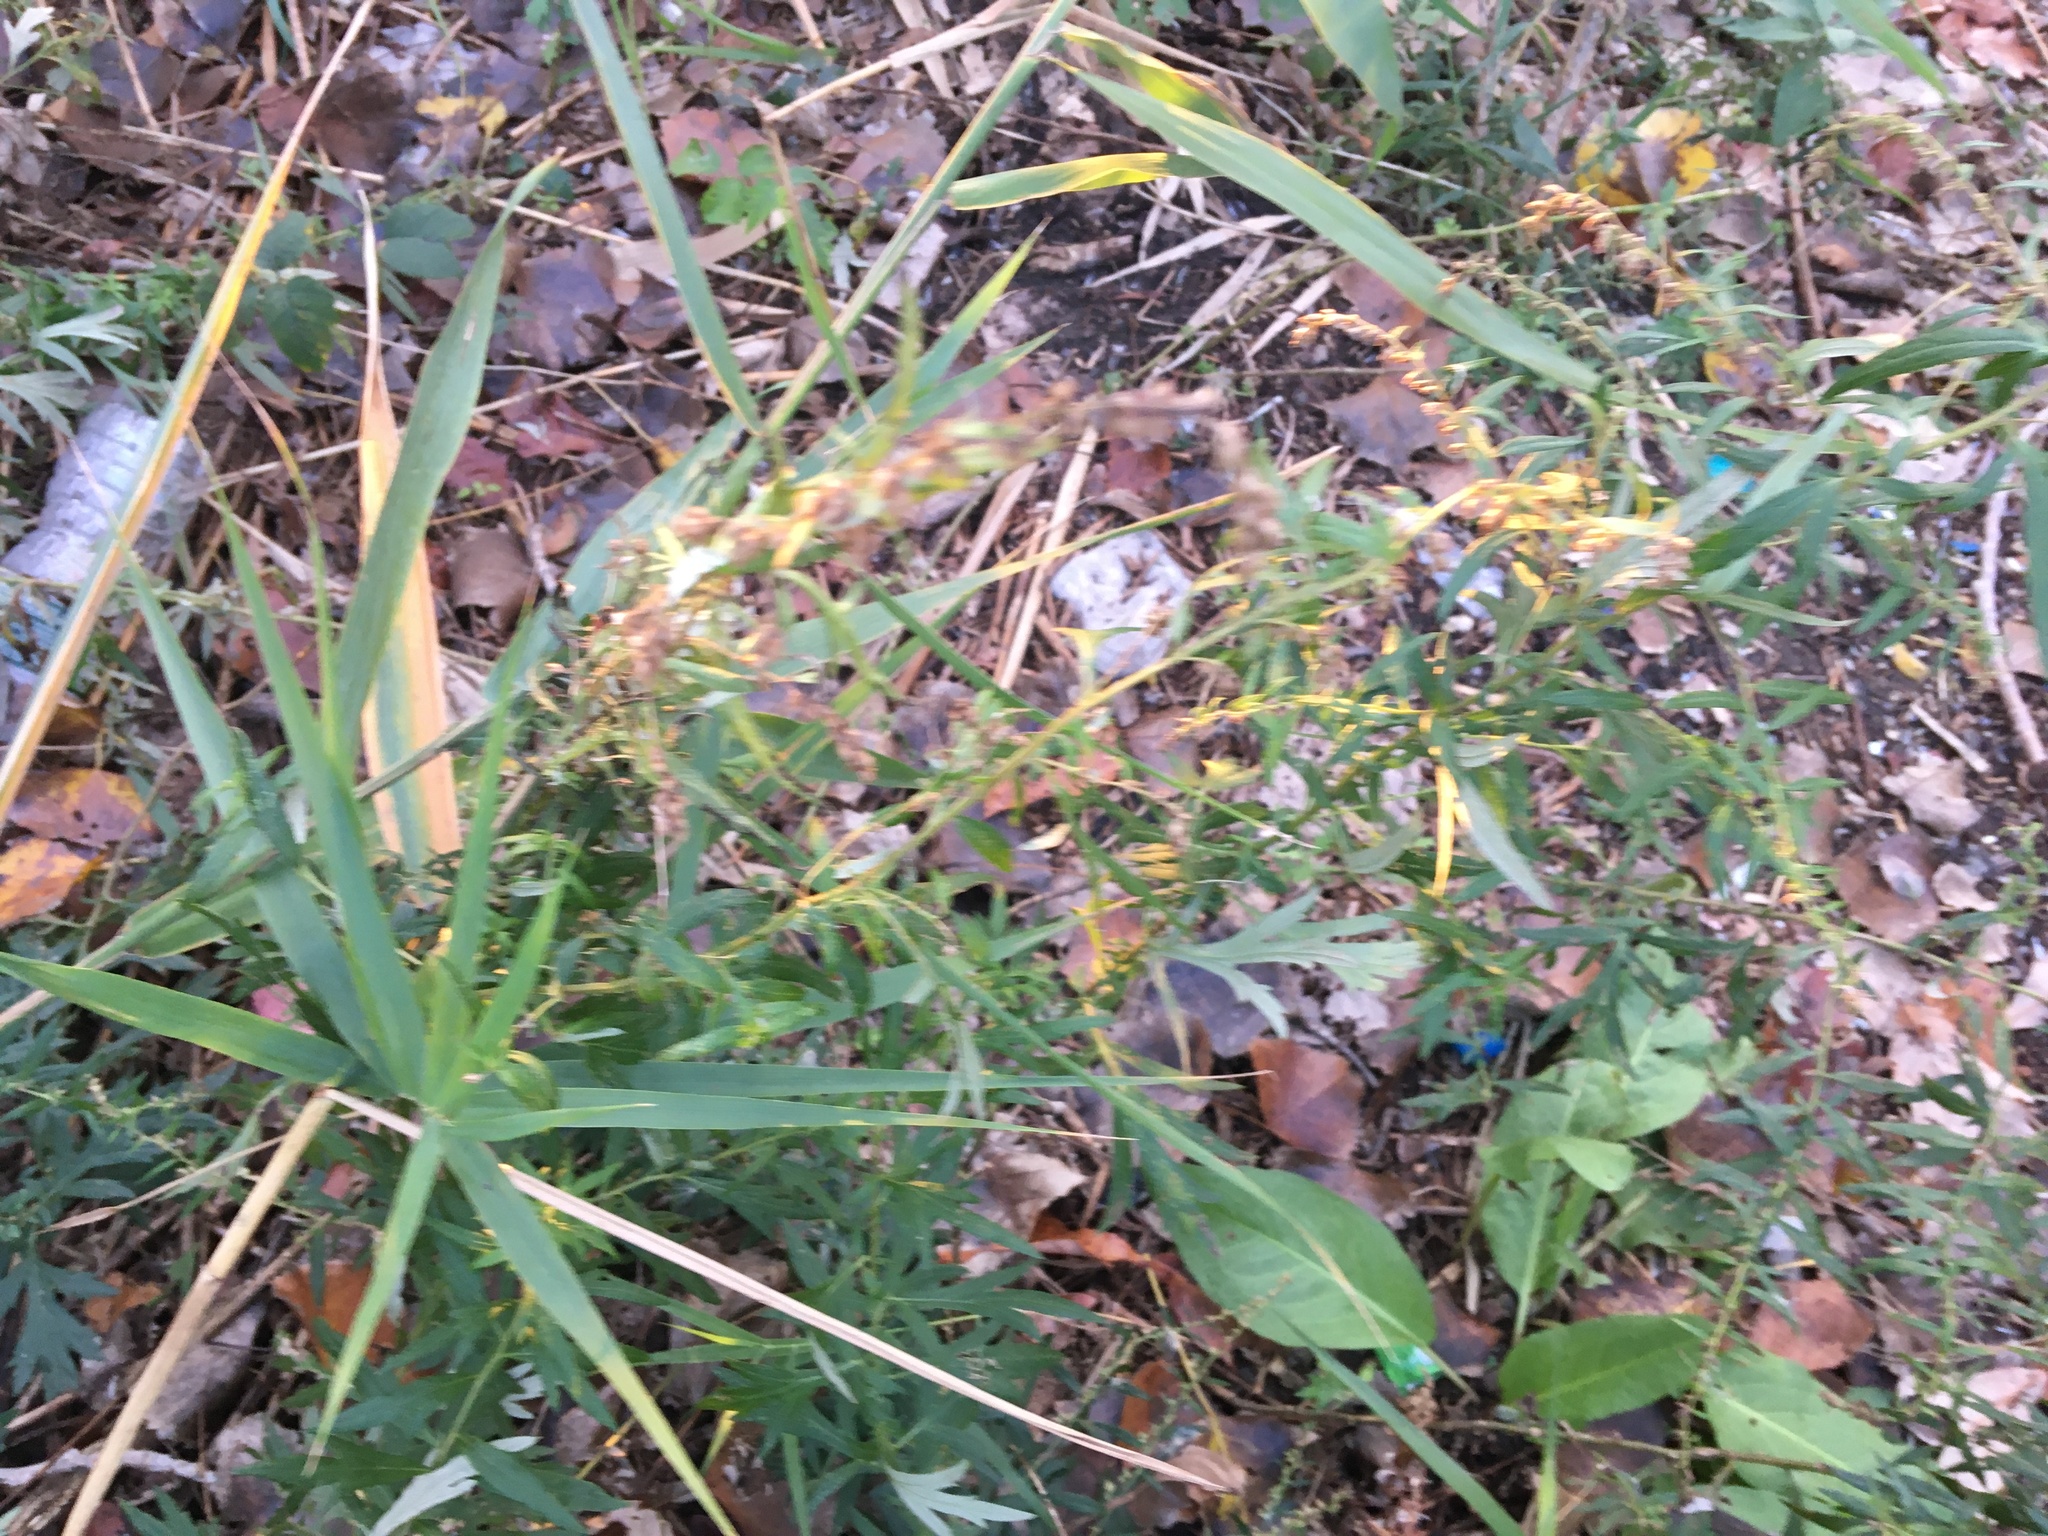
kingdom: Plantae
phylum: Tracheophyta
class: Magnoliopsida
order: Asterales
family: Asteraceae
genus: Artemisia
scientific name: Artemisia vulgaris
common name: Mugwort
